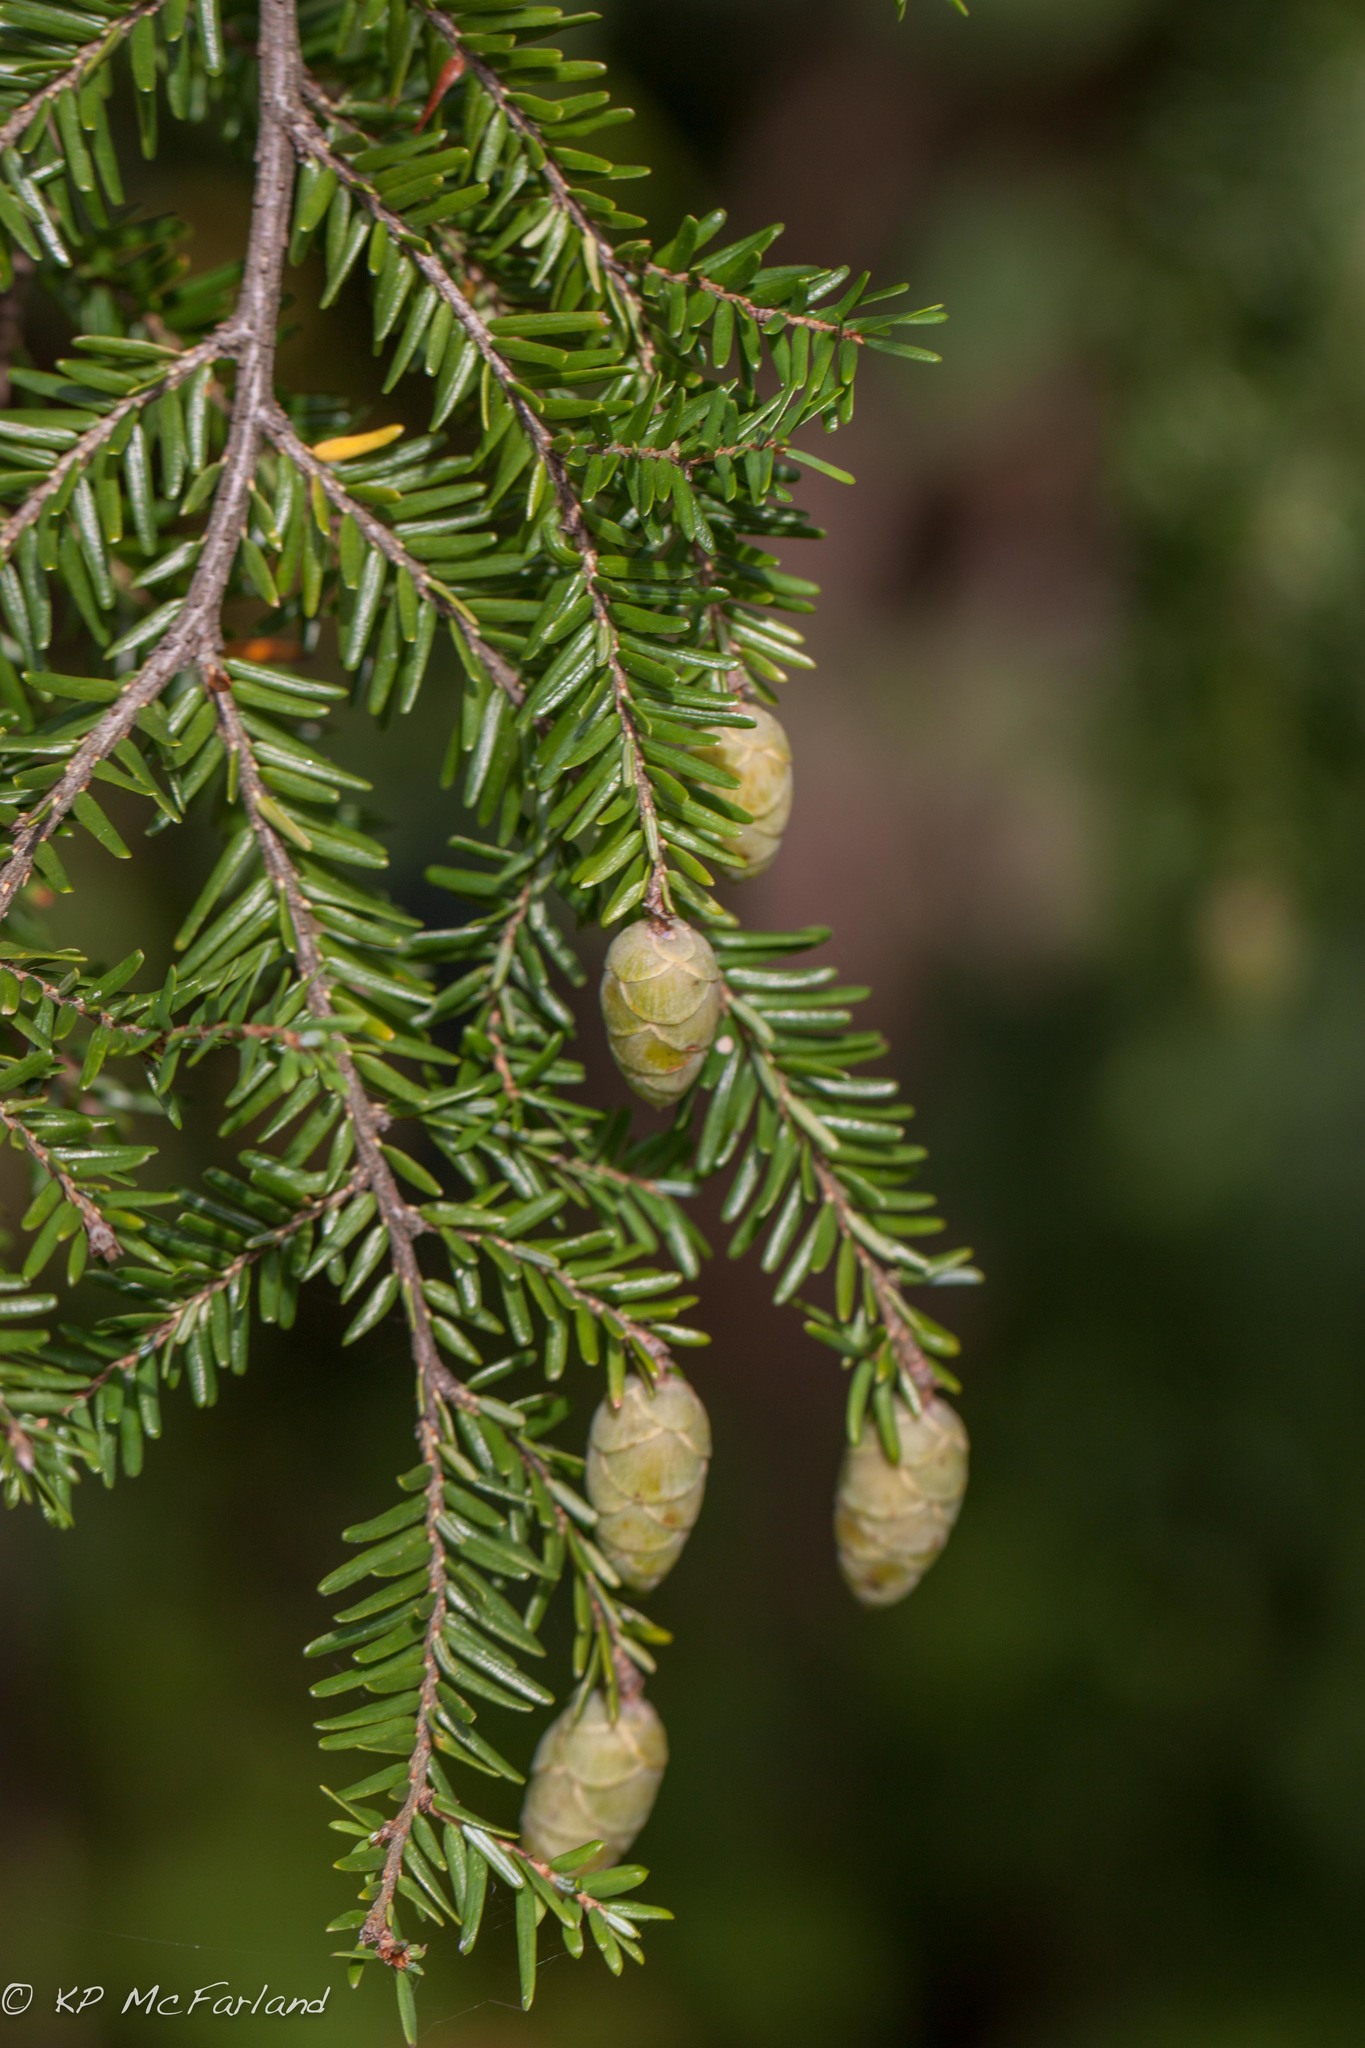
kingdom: Plantae
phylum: Tracheophyta
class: Pinopsida
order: Pinales
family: Pinaceae
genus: Tsuga
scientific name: Tsuga canadensis
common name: Eastern hemlock
